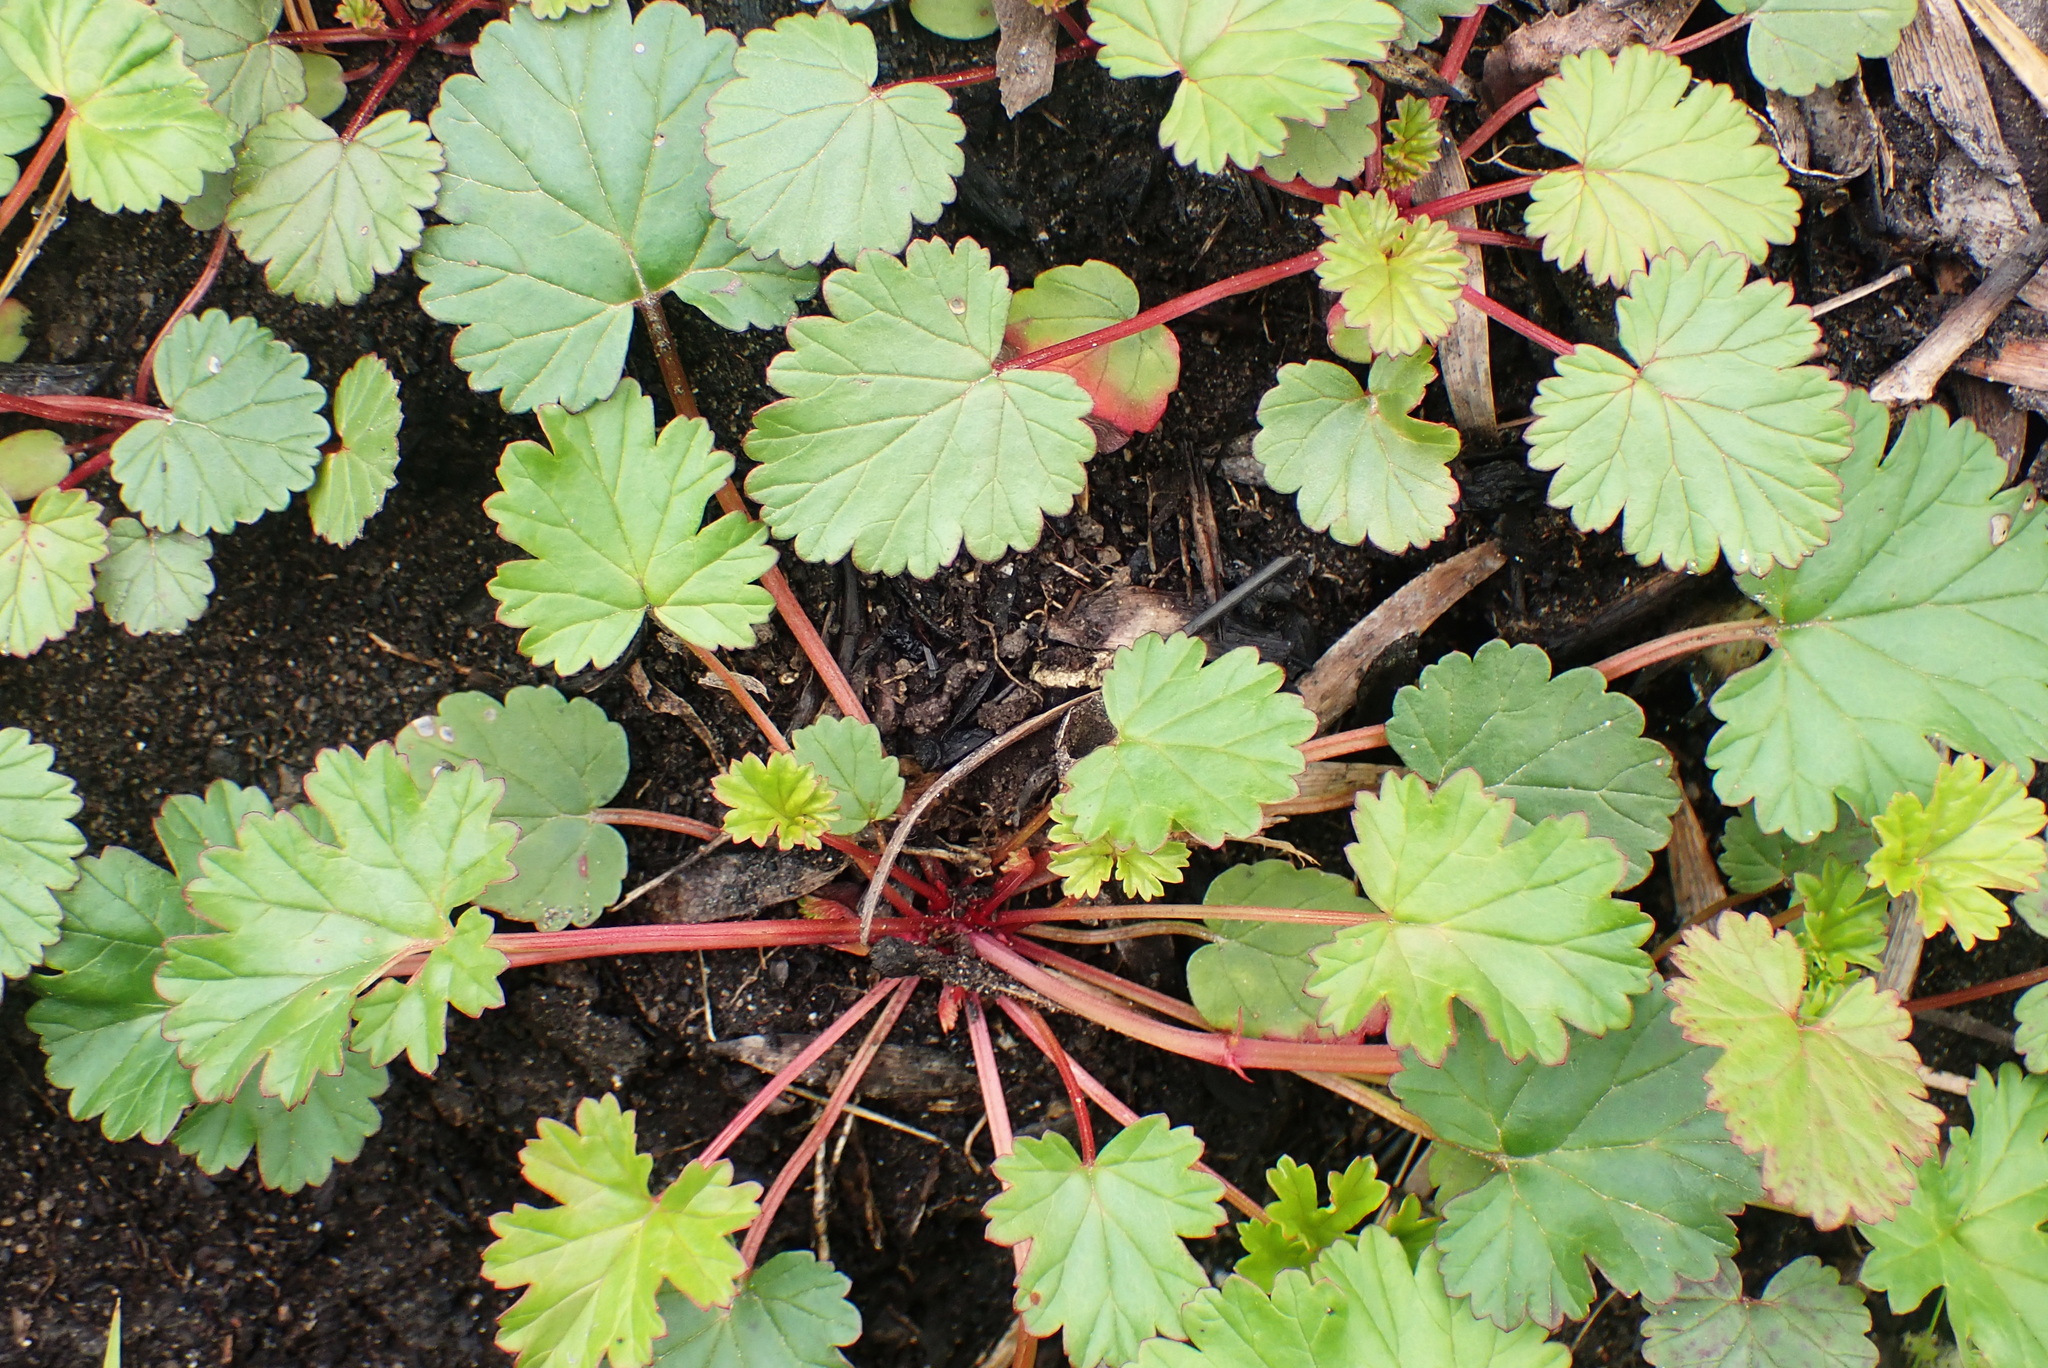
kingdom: Plantae
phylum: Tracheophyta
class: Magnoliopsida
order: Geraniales
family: Geraniaceae
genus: Pelargonium
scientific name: Pelargonium grossularioides
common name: Gooseberry geranium
